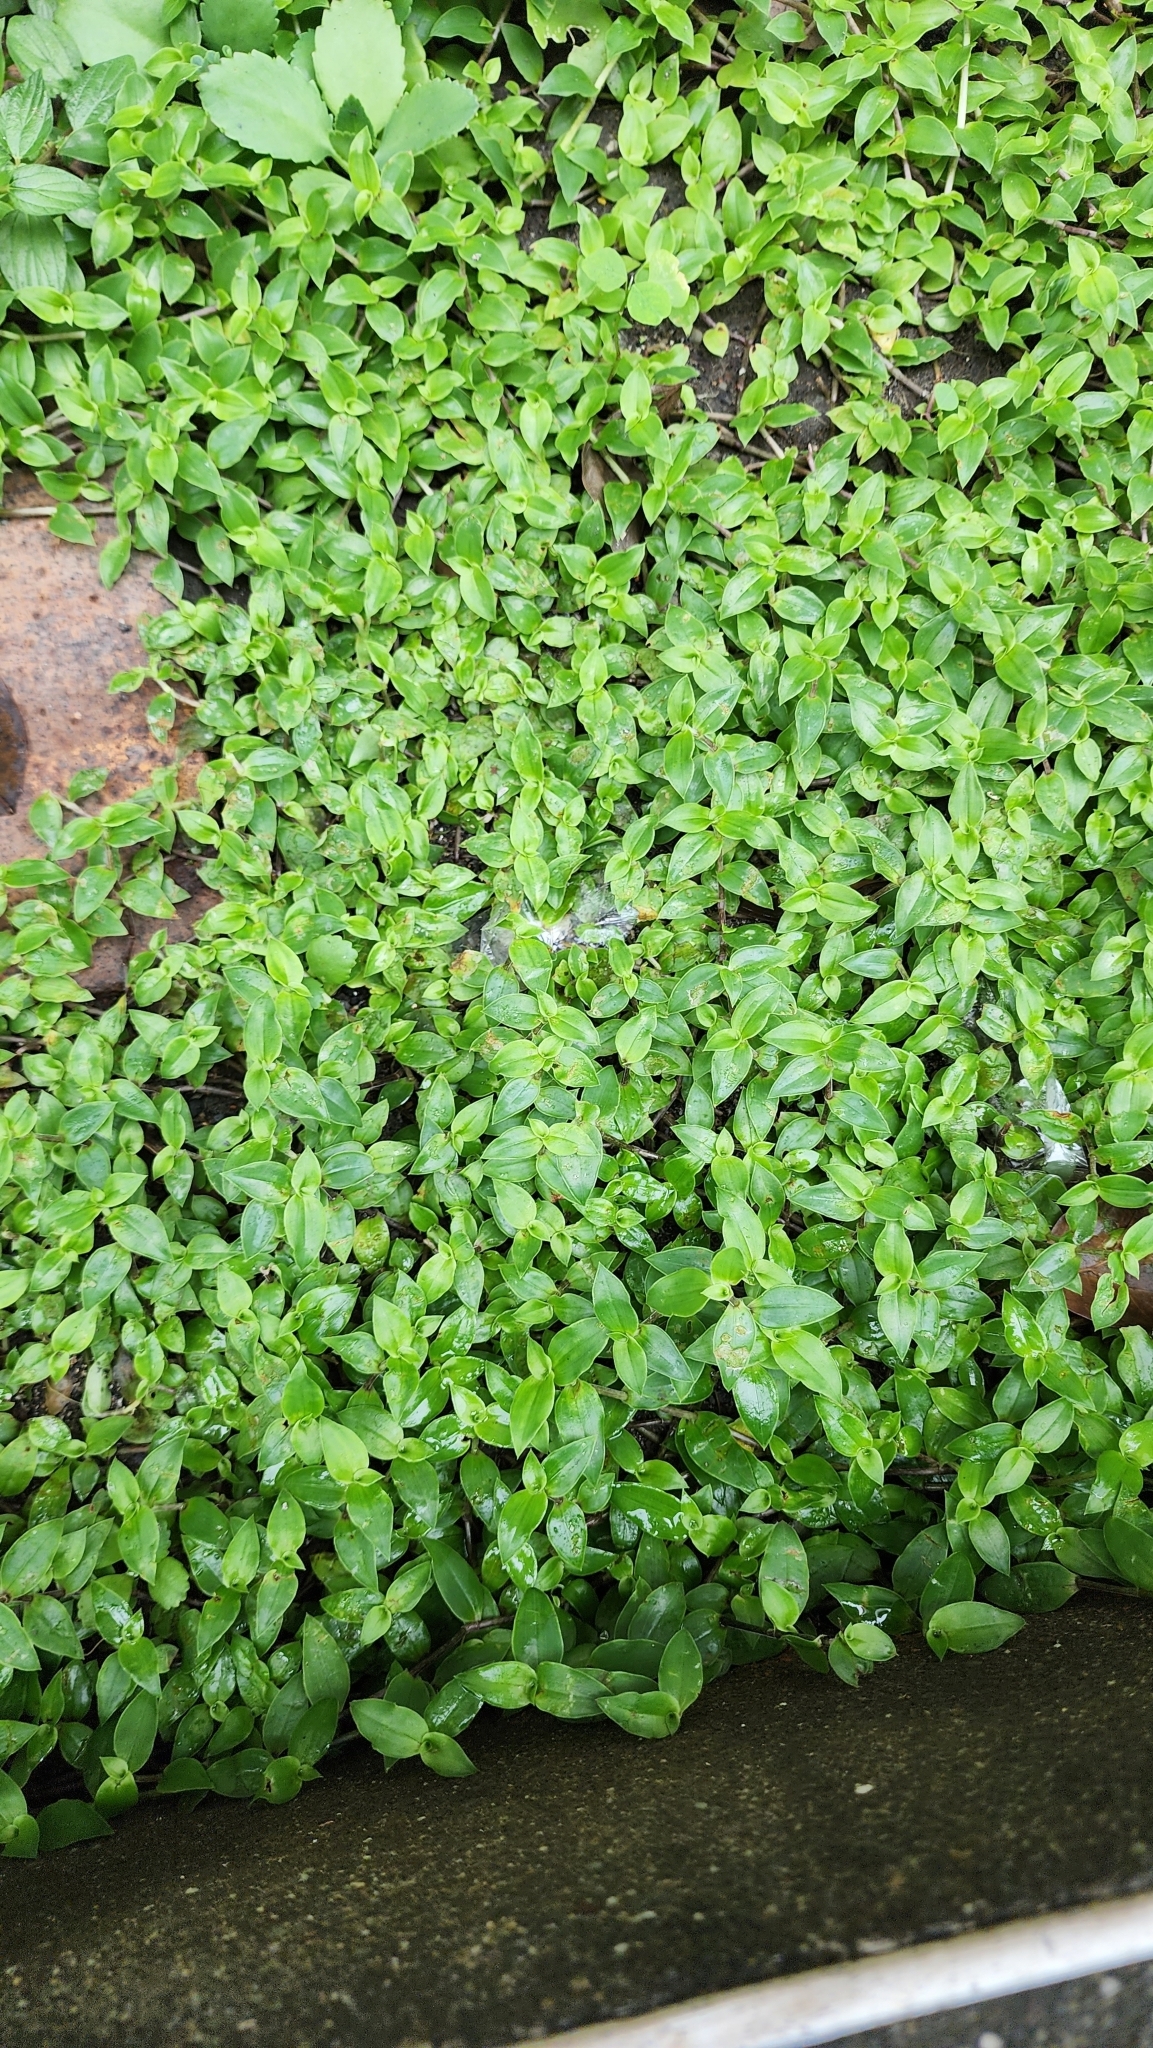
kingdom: Plantae
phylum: Tracheophyta
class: Liliopsida
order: Commelinales
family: Commelinaceae
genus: Callisia
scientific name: Callisia repens
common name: Creeping inchplant
